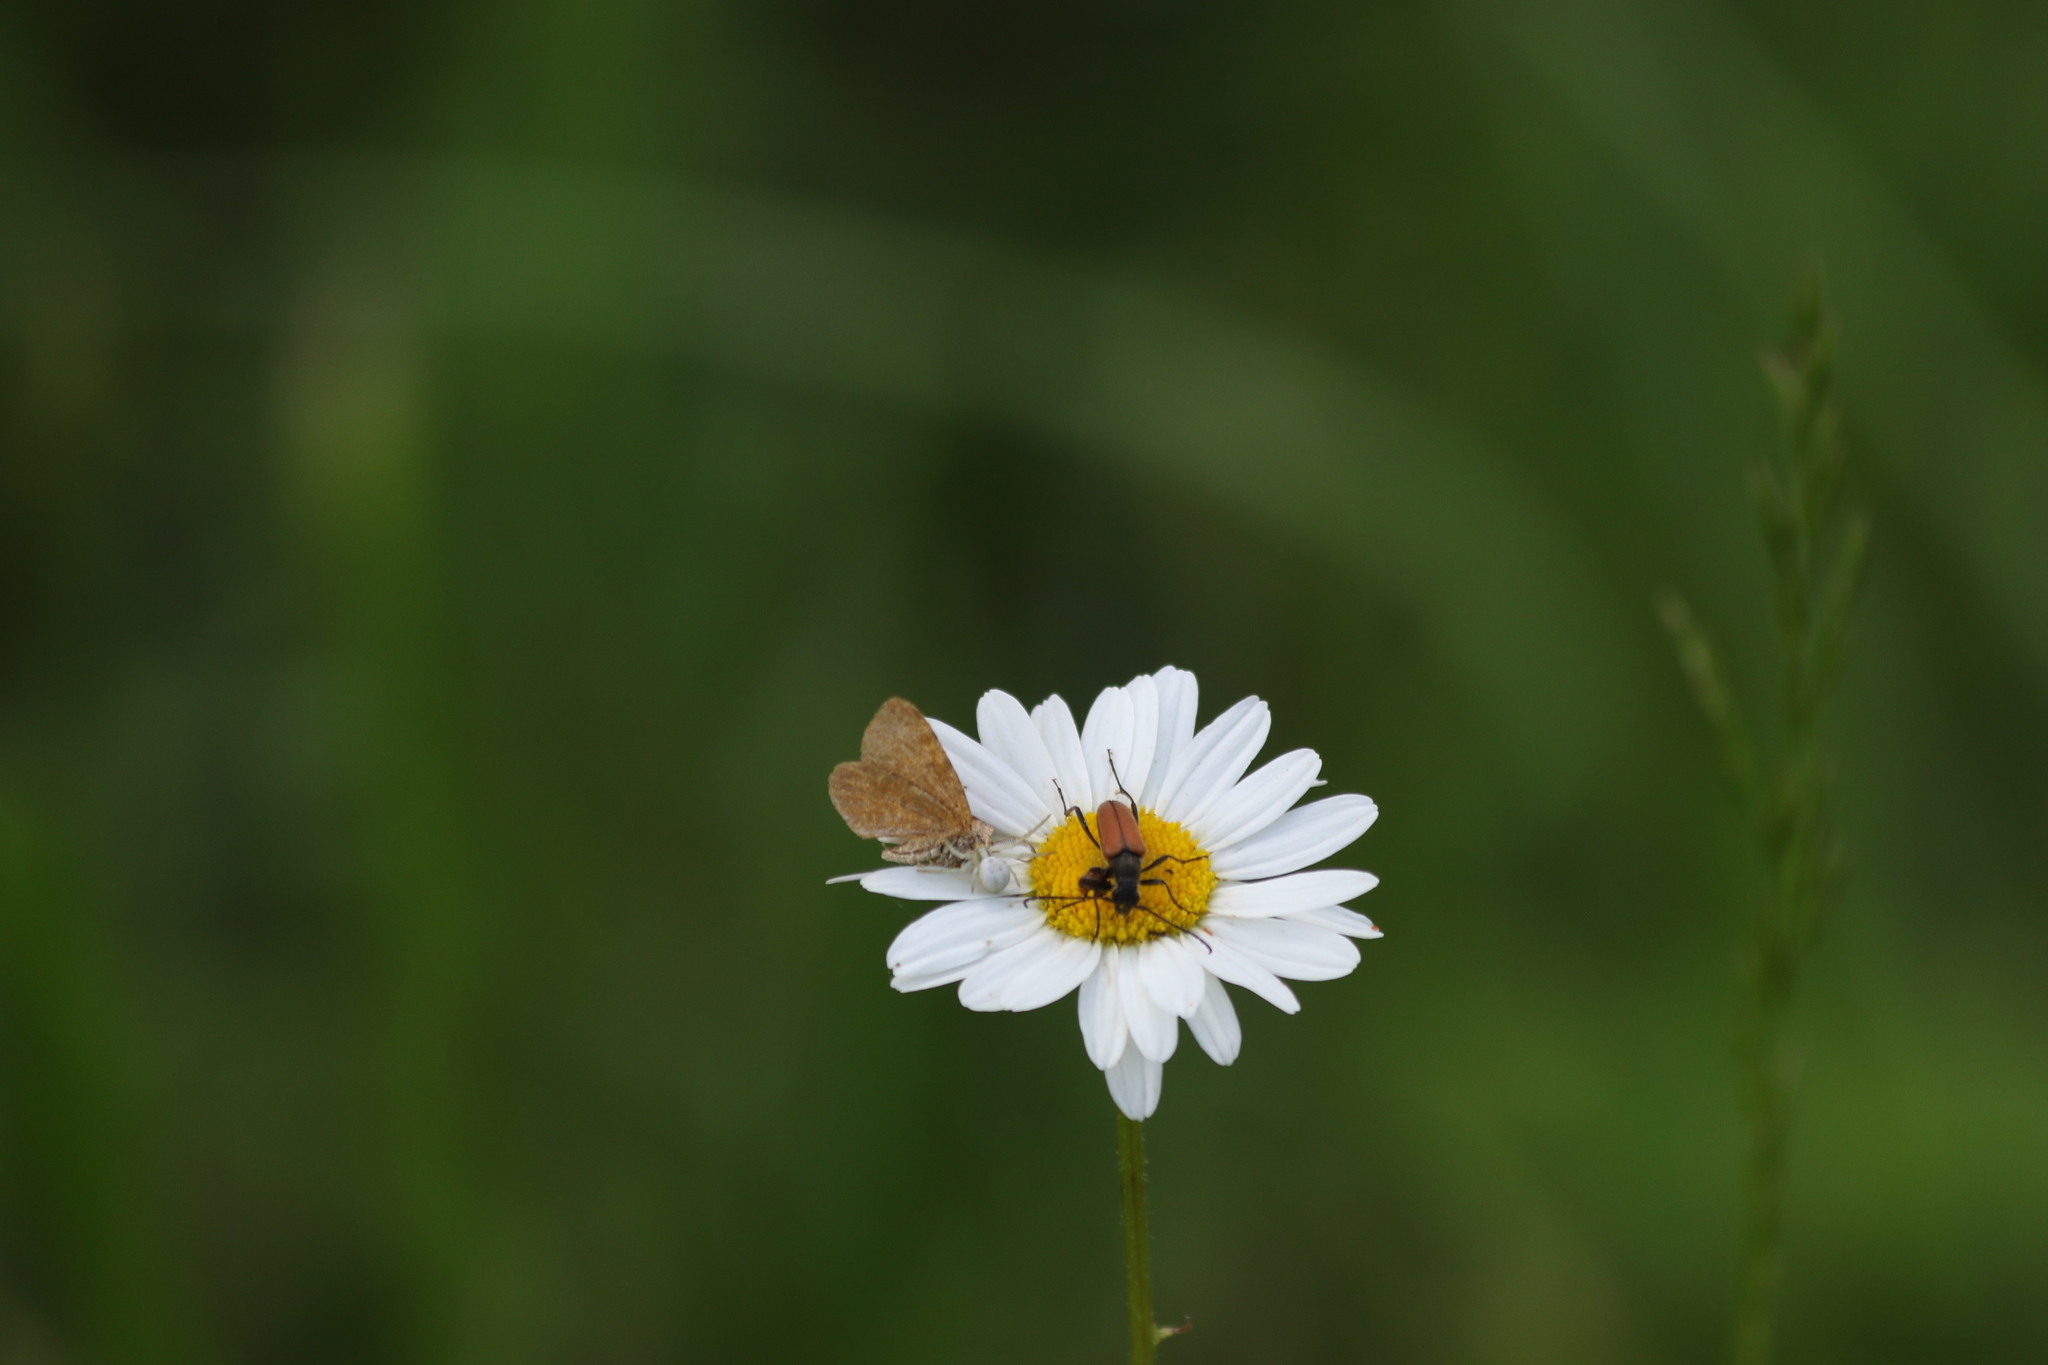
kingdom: Animalia
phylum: Arthropoda
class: Arachnida
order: Araneae
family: Thomisidae
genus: Misumena
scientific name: Misumena vatia
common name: Goldenrod crab spider
